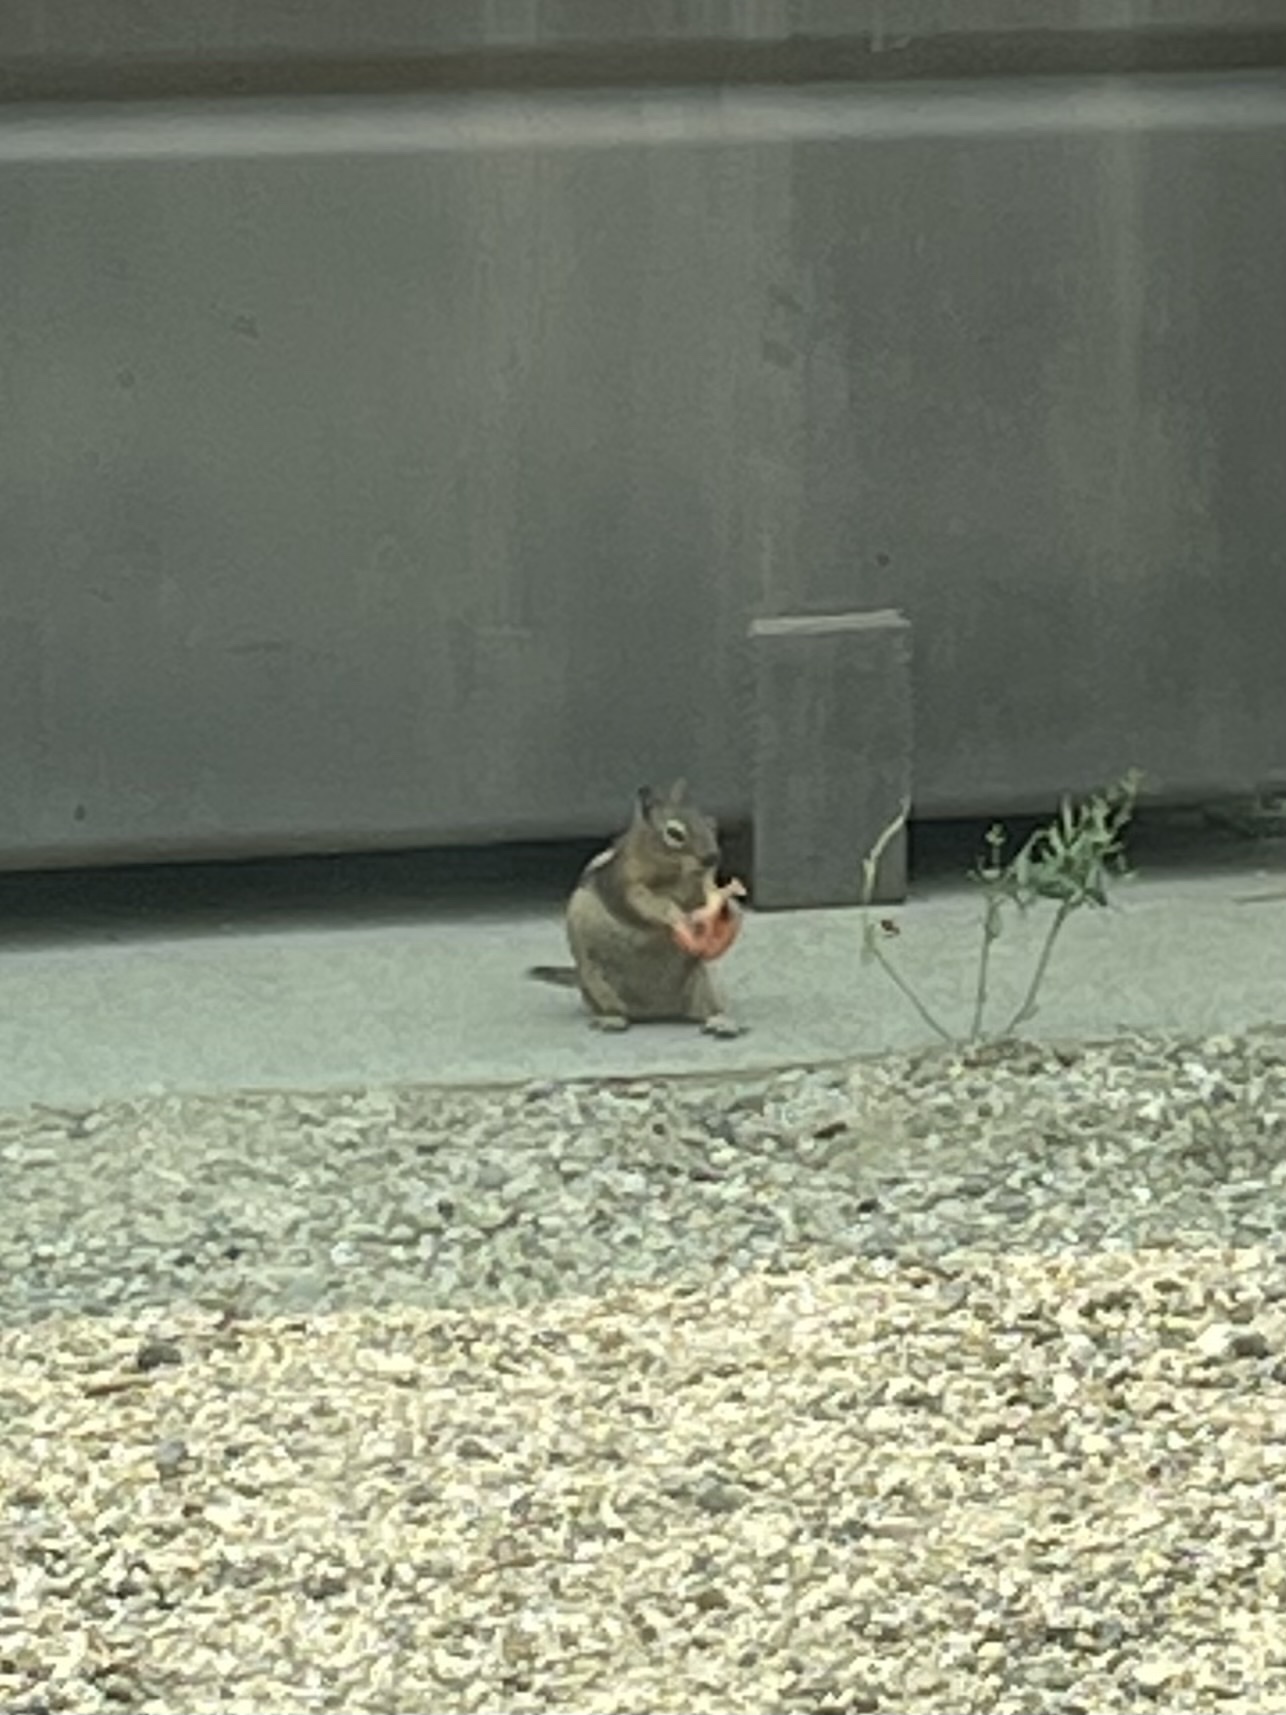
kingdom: Animalia
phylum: Chordata
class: Mammalia
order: Rodentia
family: Sciuridae
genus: Callospermophilus
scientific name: Callospermophilus lateralis
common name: Golden-mantled ground squirrel
